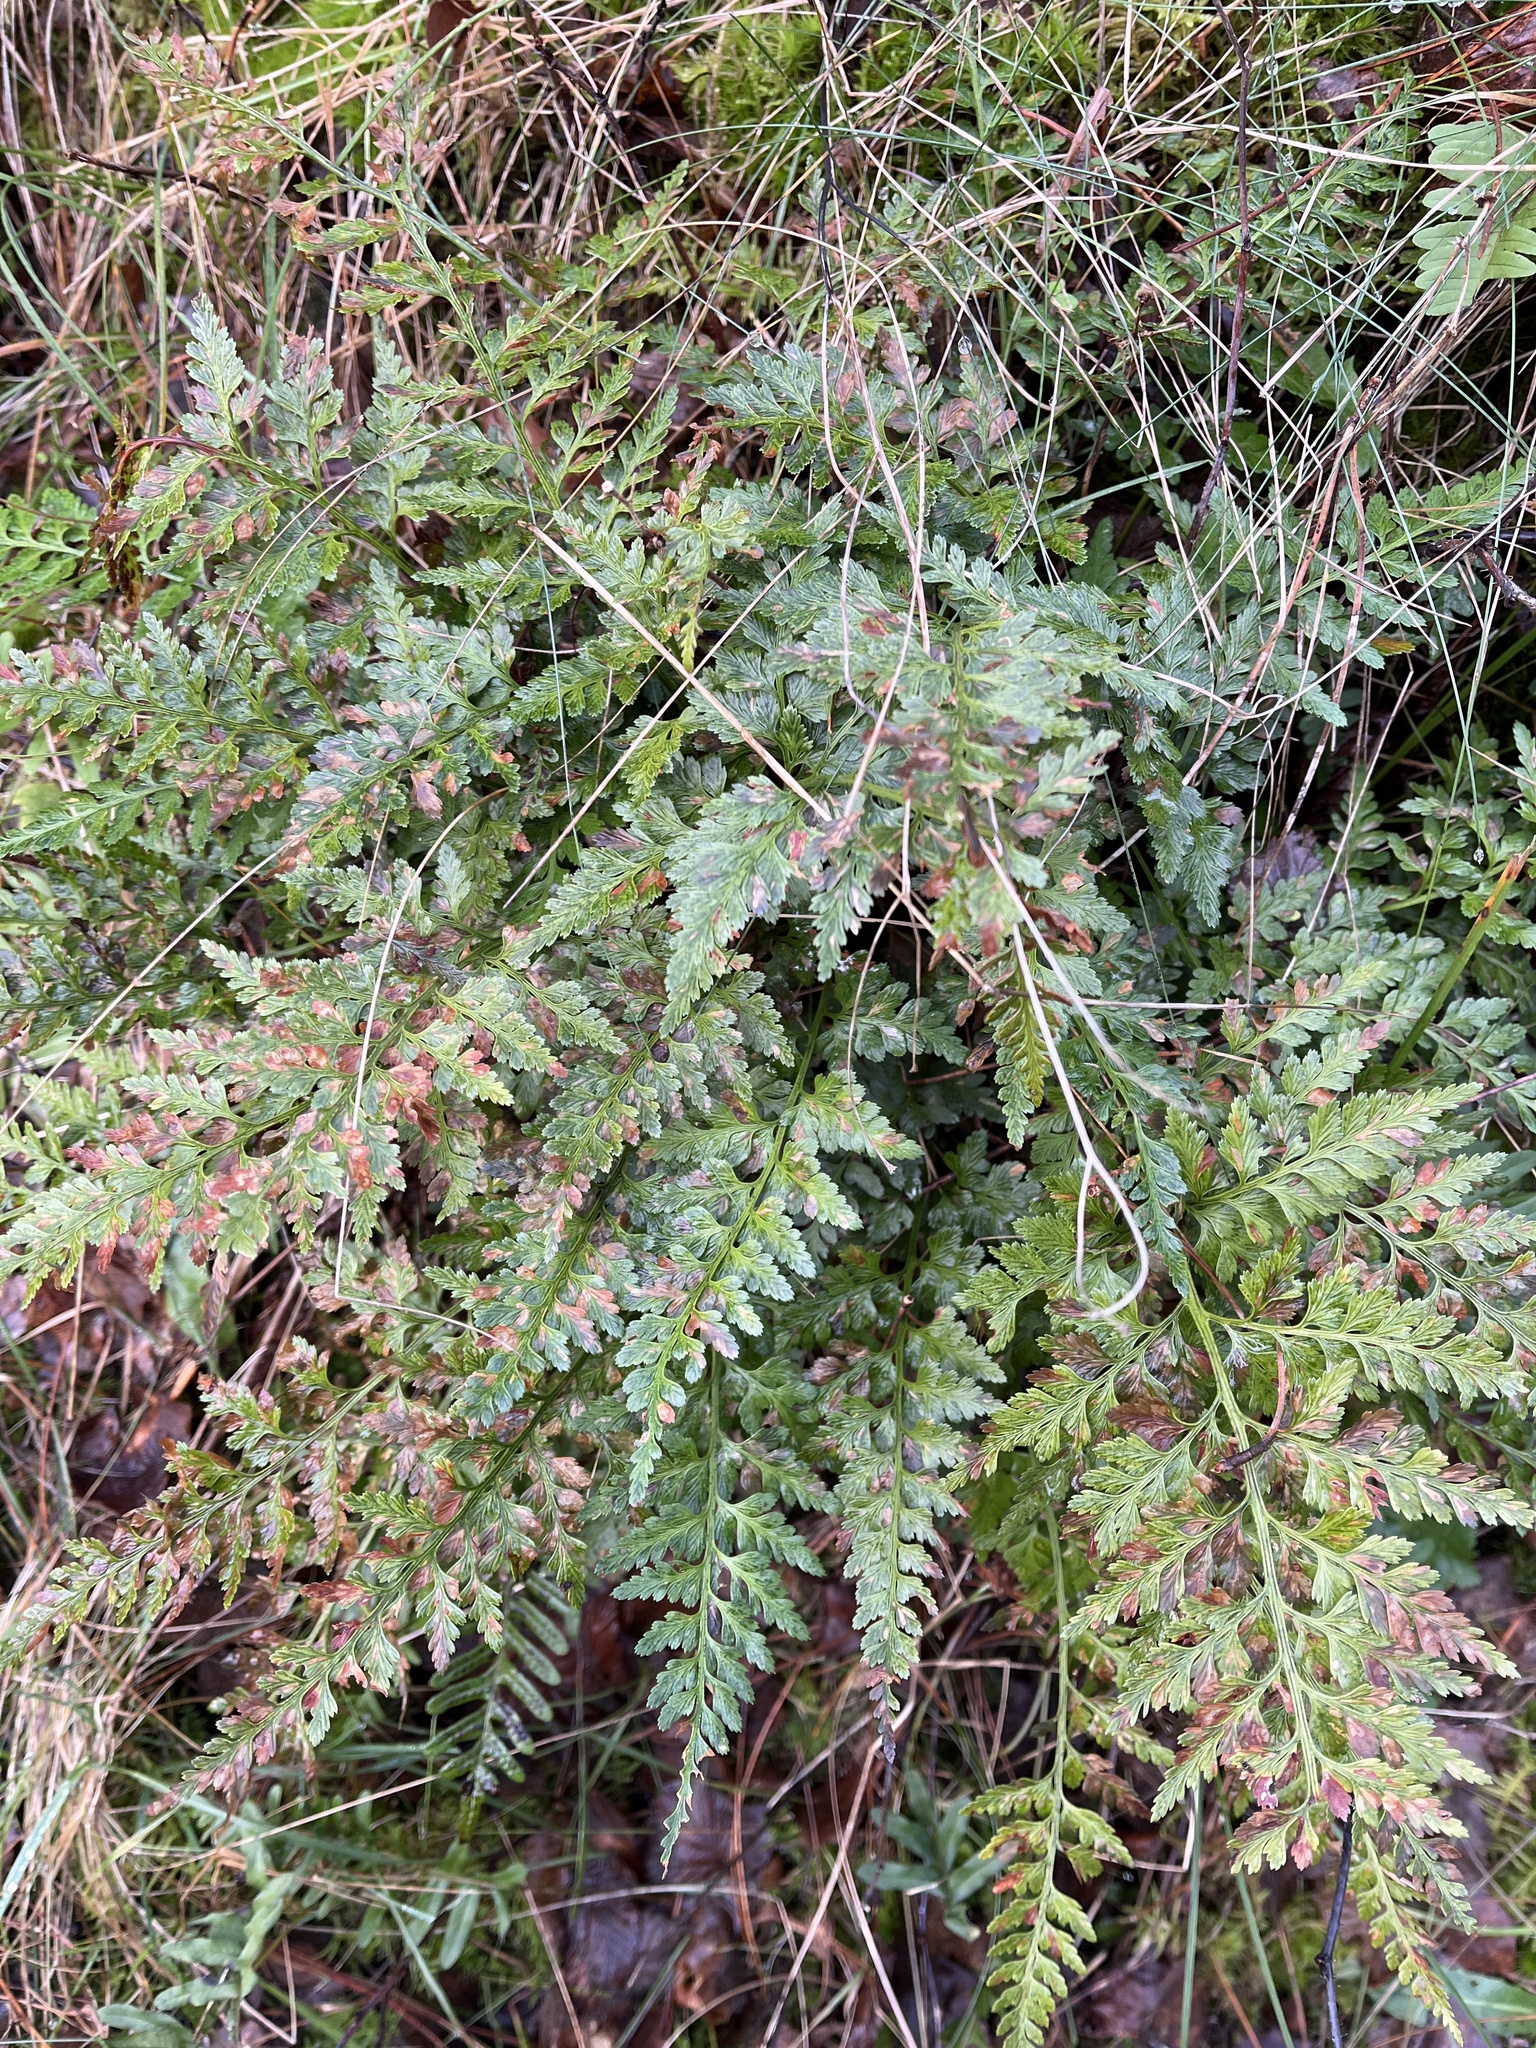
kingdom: Plantae
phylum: Tracheophyta
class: Polypodiopsida
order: Polypodiales
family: Aspleniaceae
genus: Asplenium
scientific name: Asplenium adiantum-nigrum
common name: Black spleenwort
